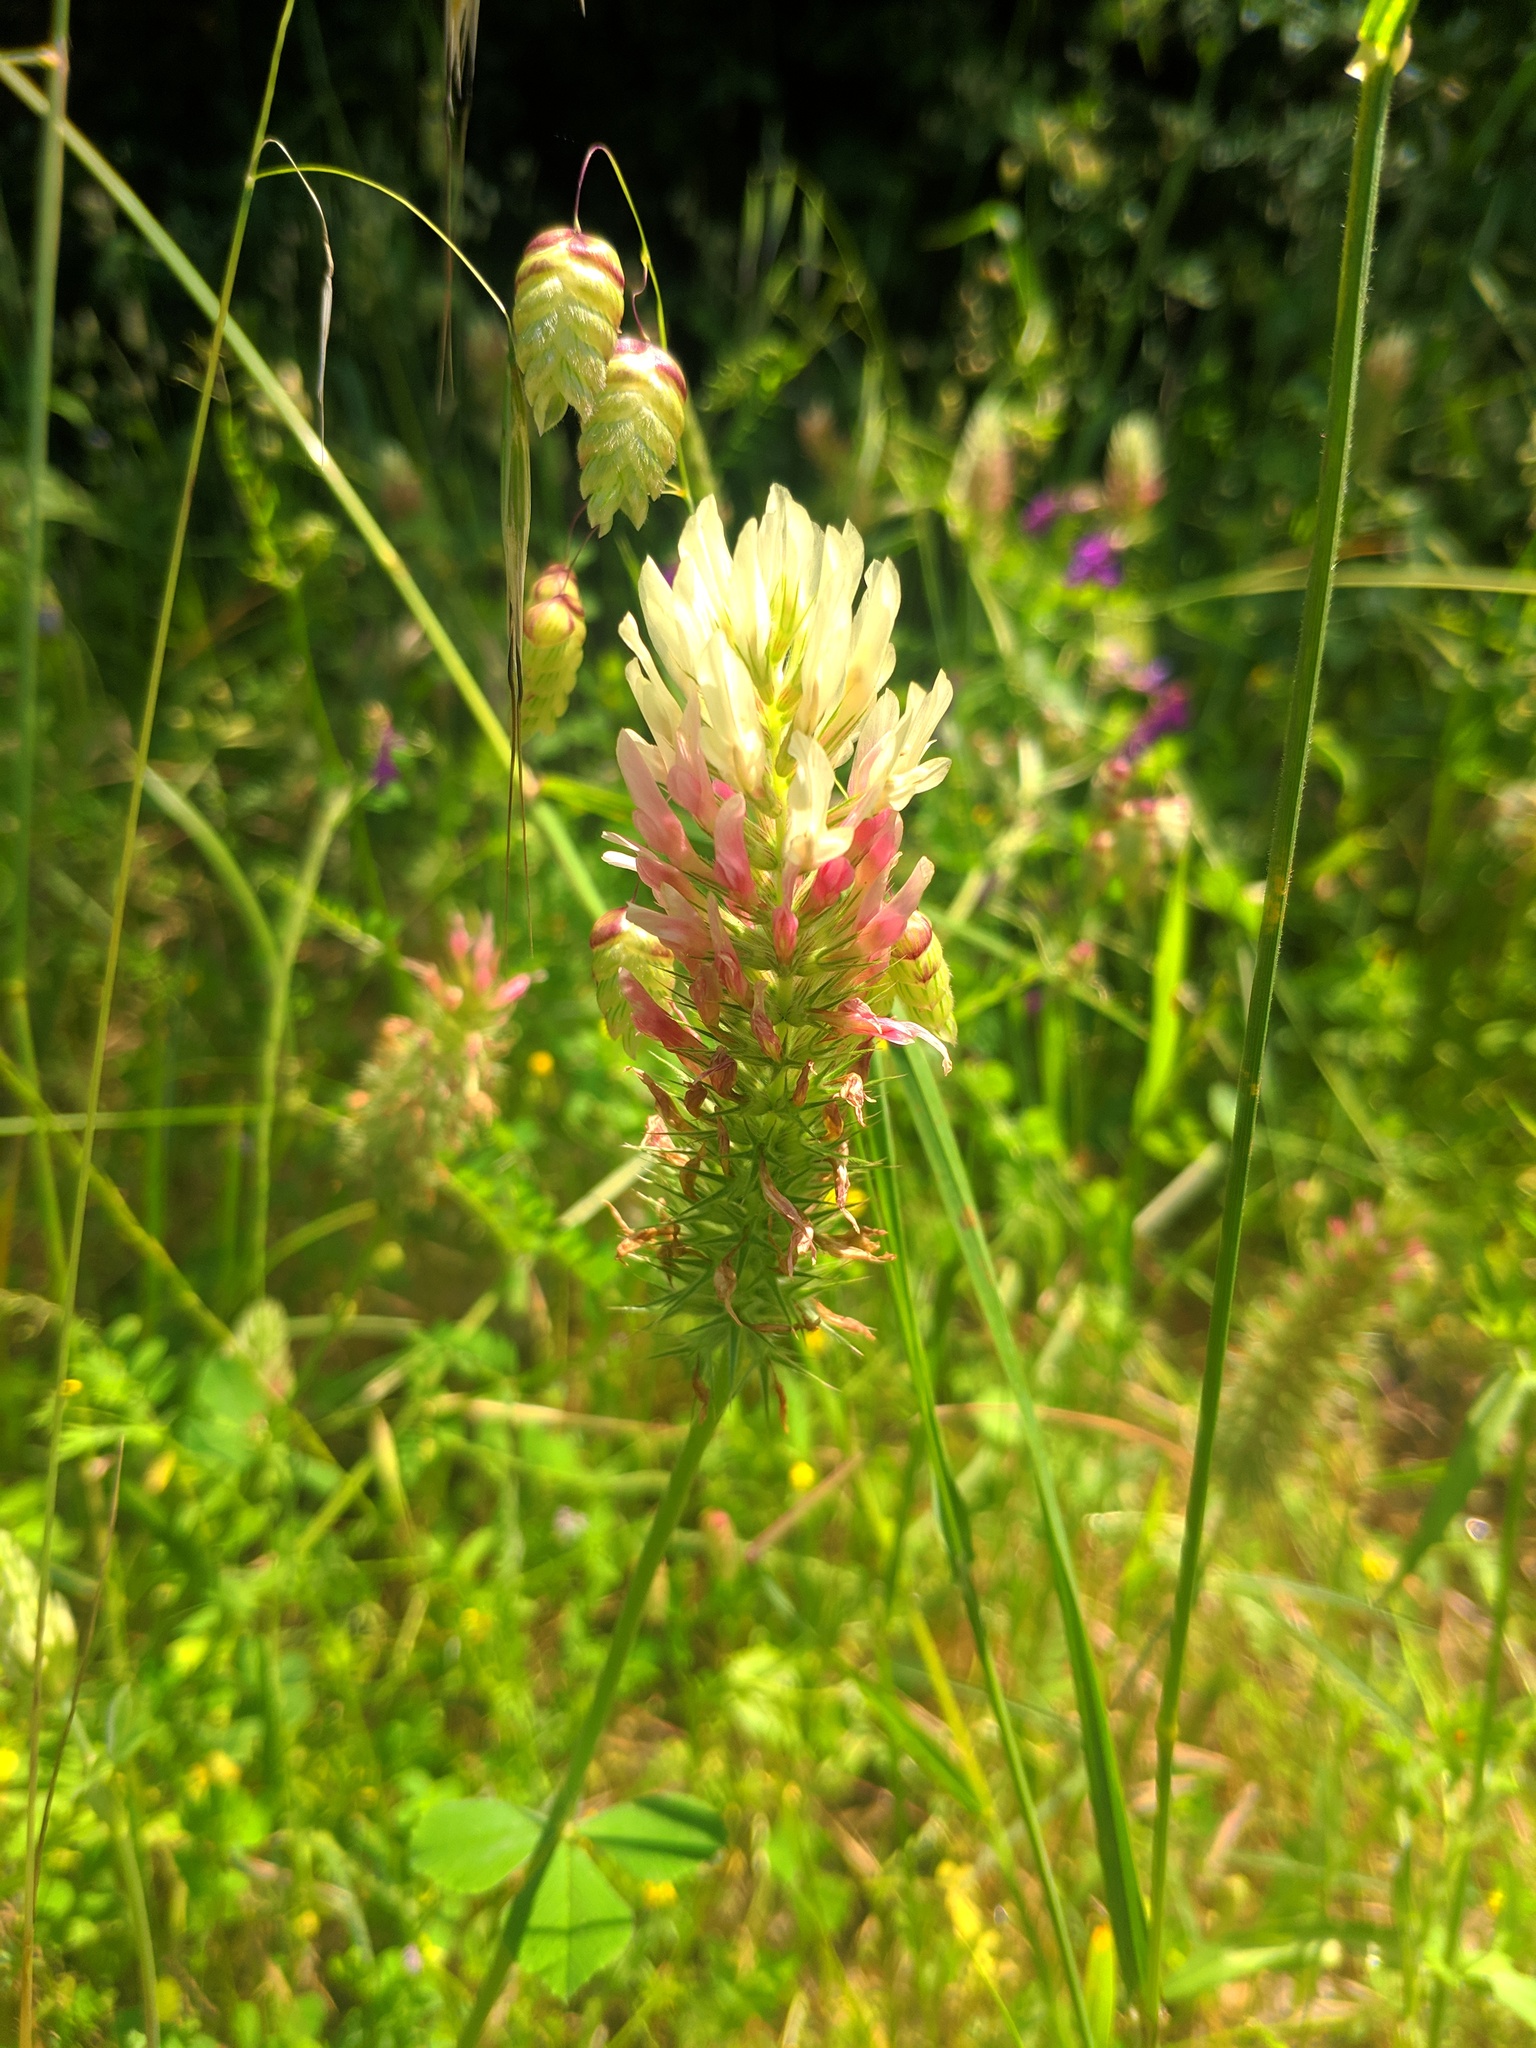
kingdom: Plantae
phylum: Tracheophyta
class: Magnoliopsida
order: Fabales
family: Fabaceae
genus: Trifolium
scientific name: Trifolium incarnatum
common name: Crimson clover
